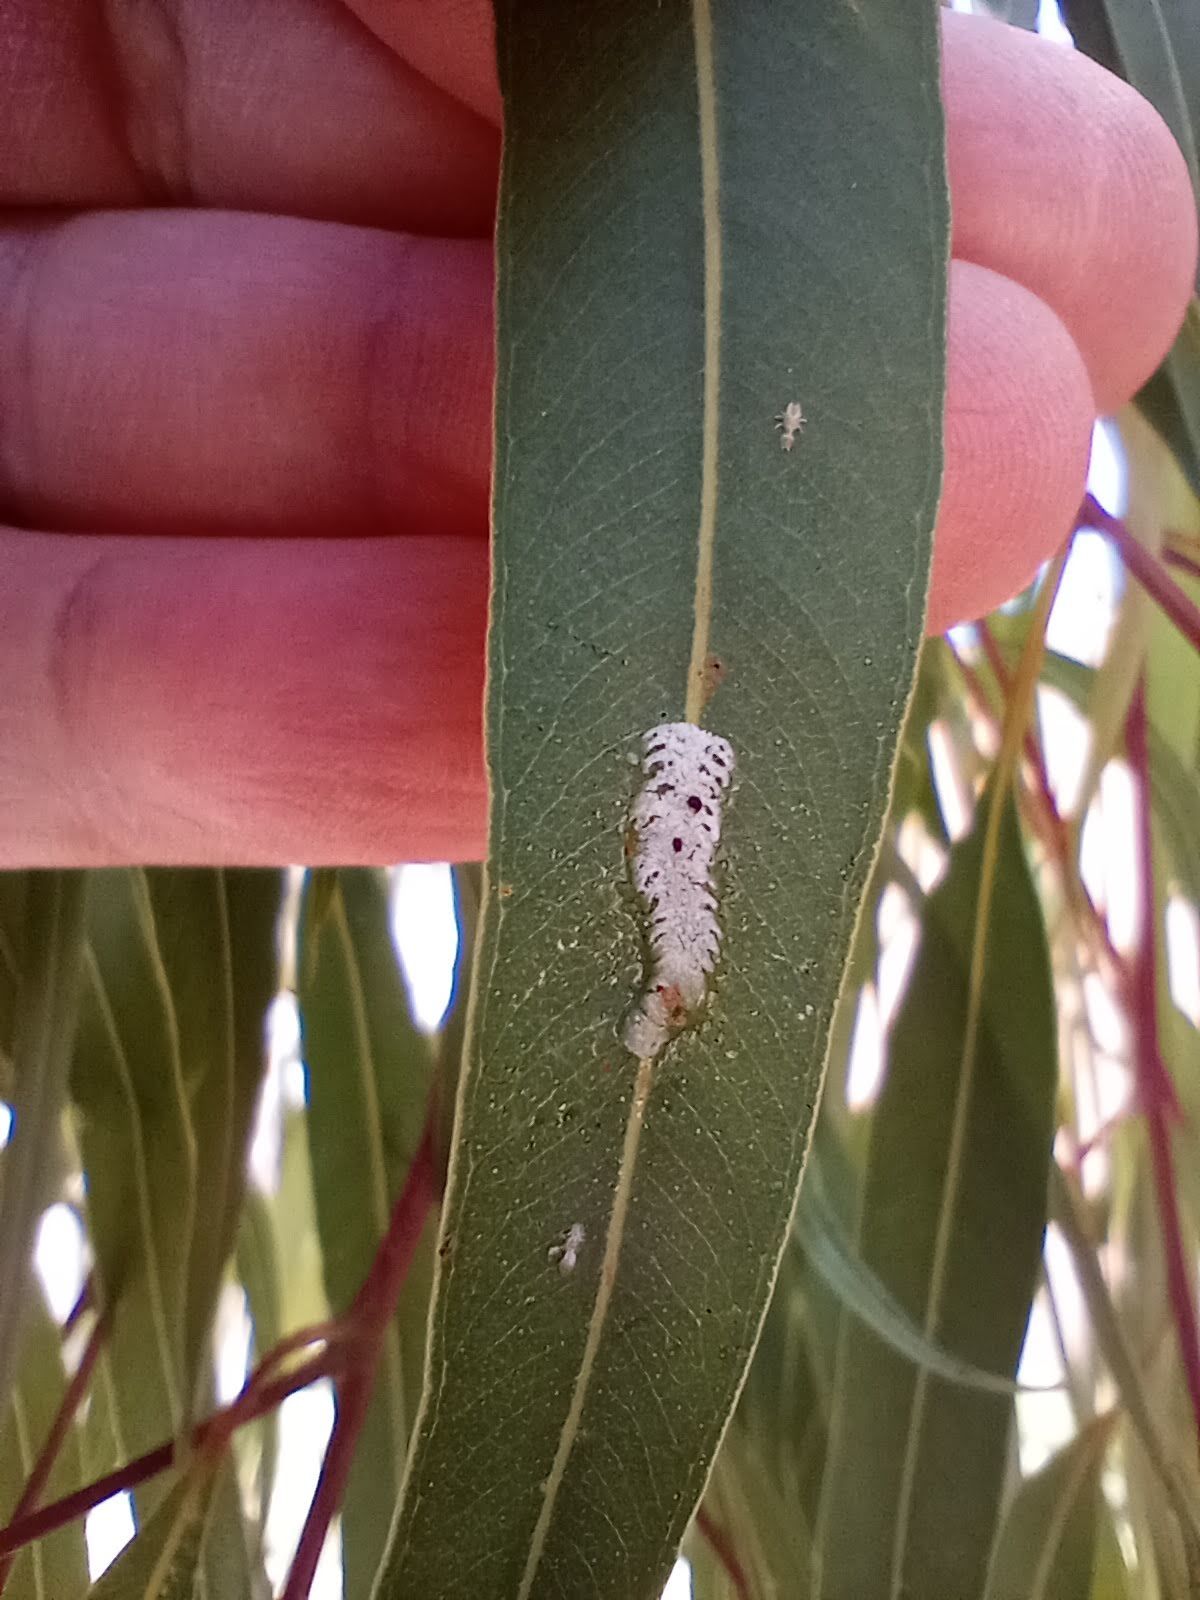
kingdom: Animalia
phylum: Arthropoda
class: Insecta
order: Hemiptera
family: Aphalaridae
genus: Eucalyptolyma
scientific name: Eucalyptolyma maideni
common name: Spotted gum lerp psyllid
